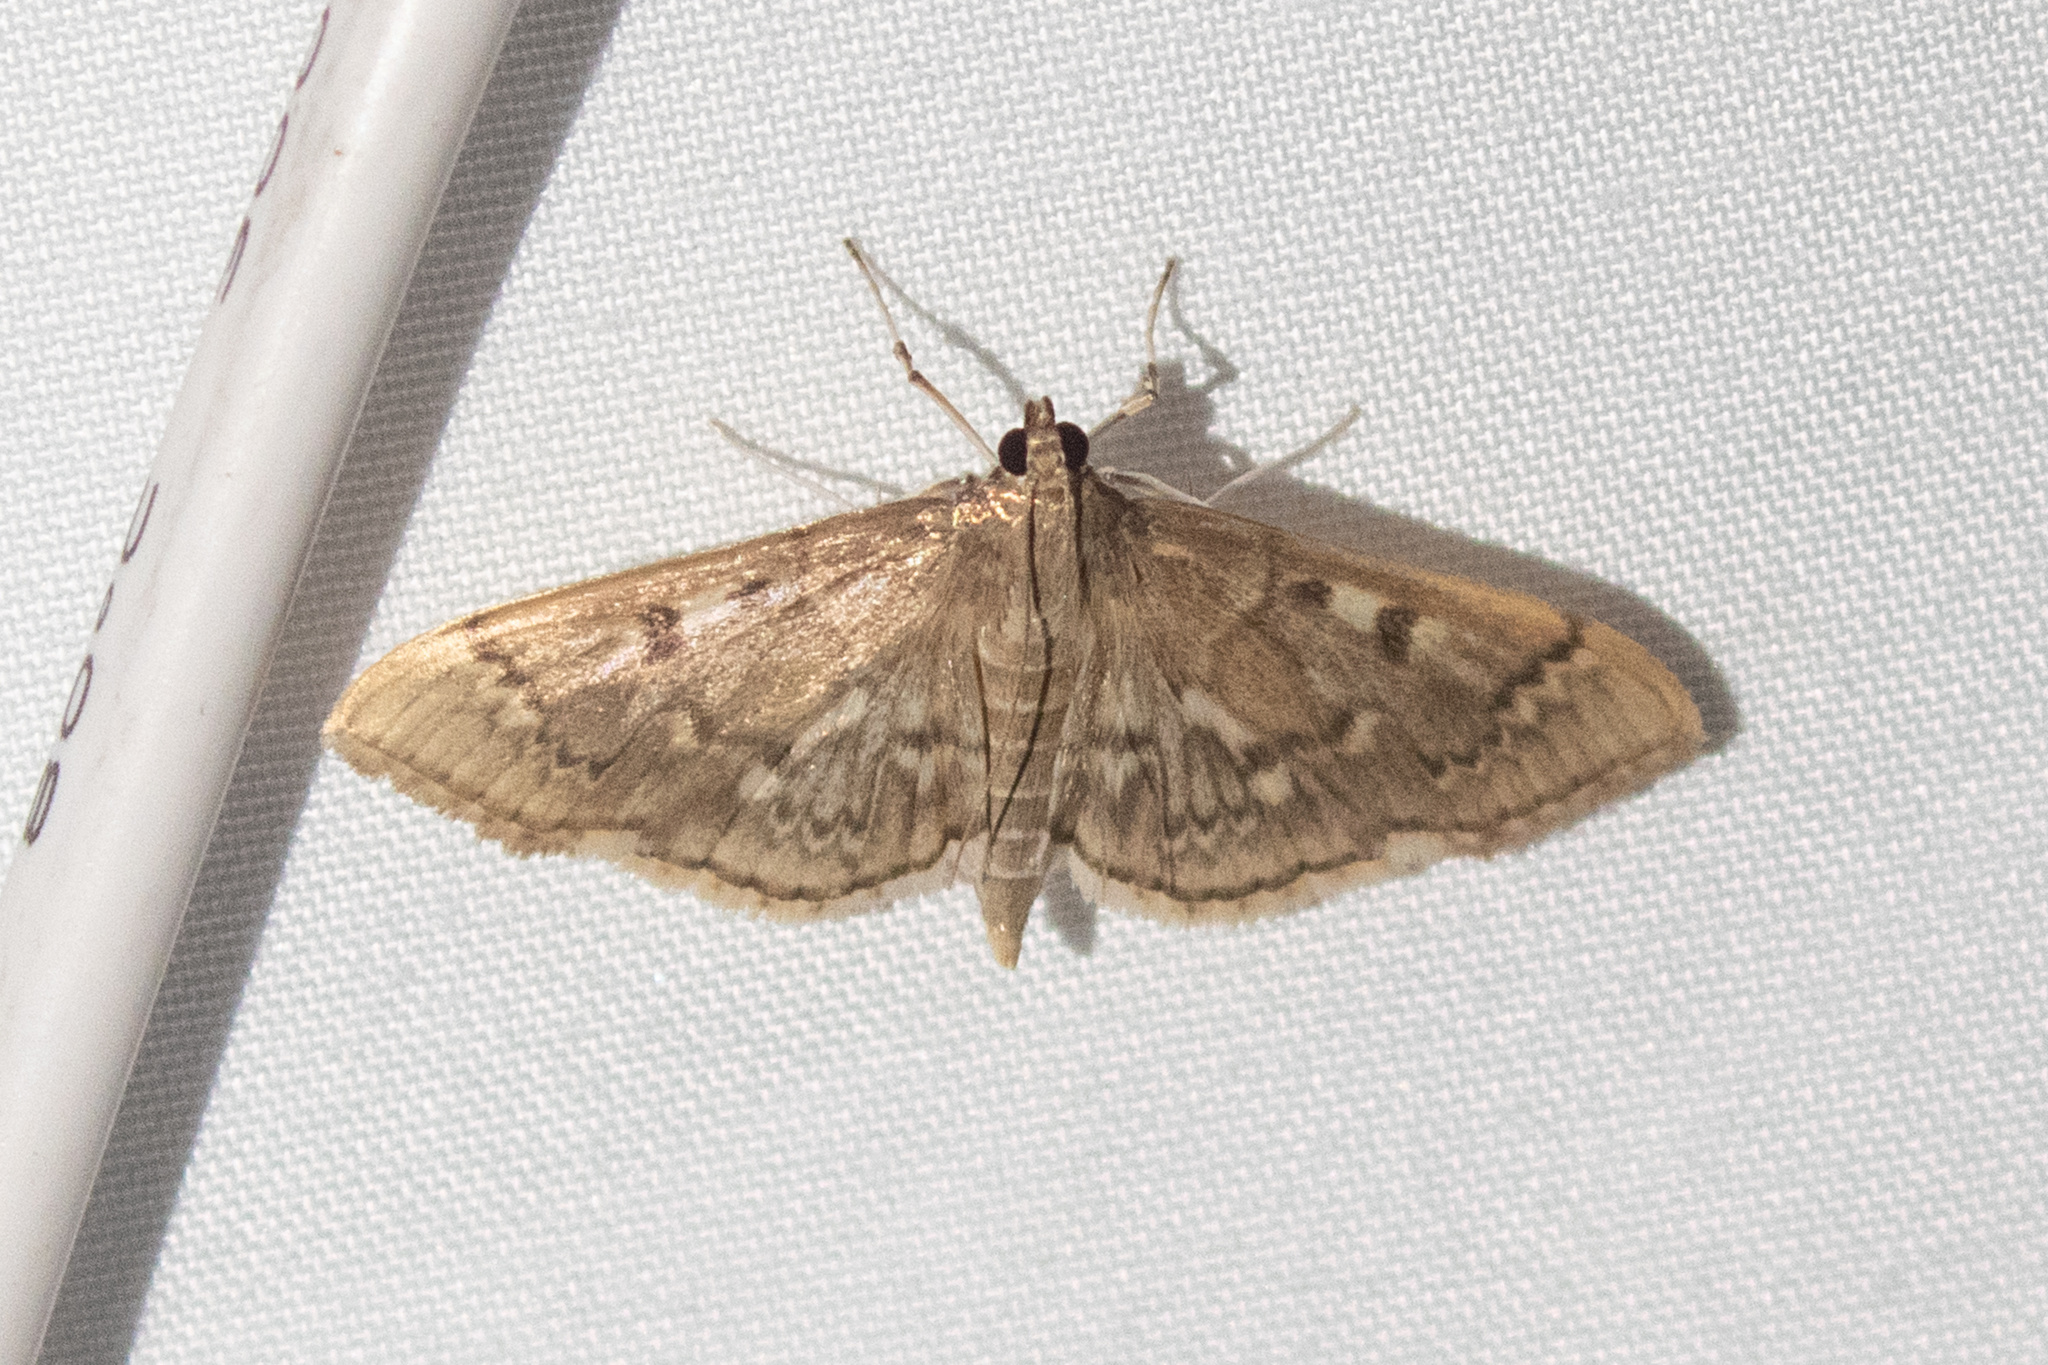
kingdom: Animalia
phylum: Arthropoda
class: Insecta
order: Lepidoptera
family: Crambidae
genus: Herpetogramma
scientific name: Herpetogramma aeglealis
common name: Serpentine webworm moth
